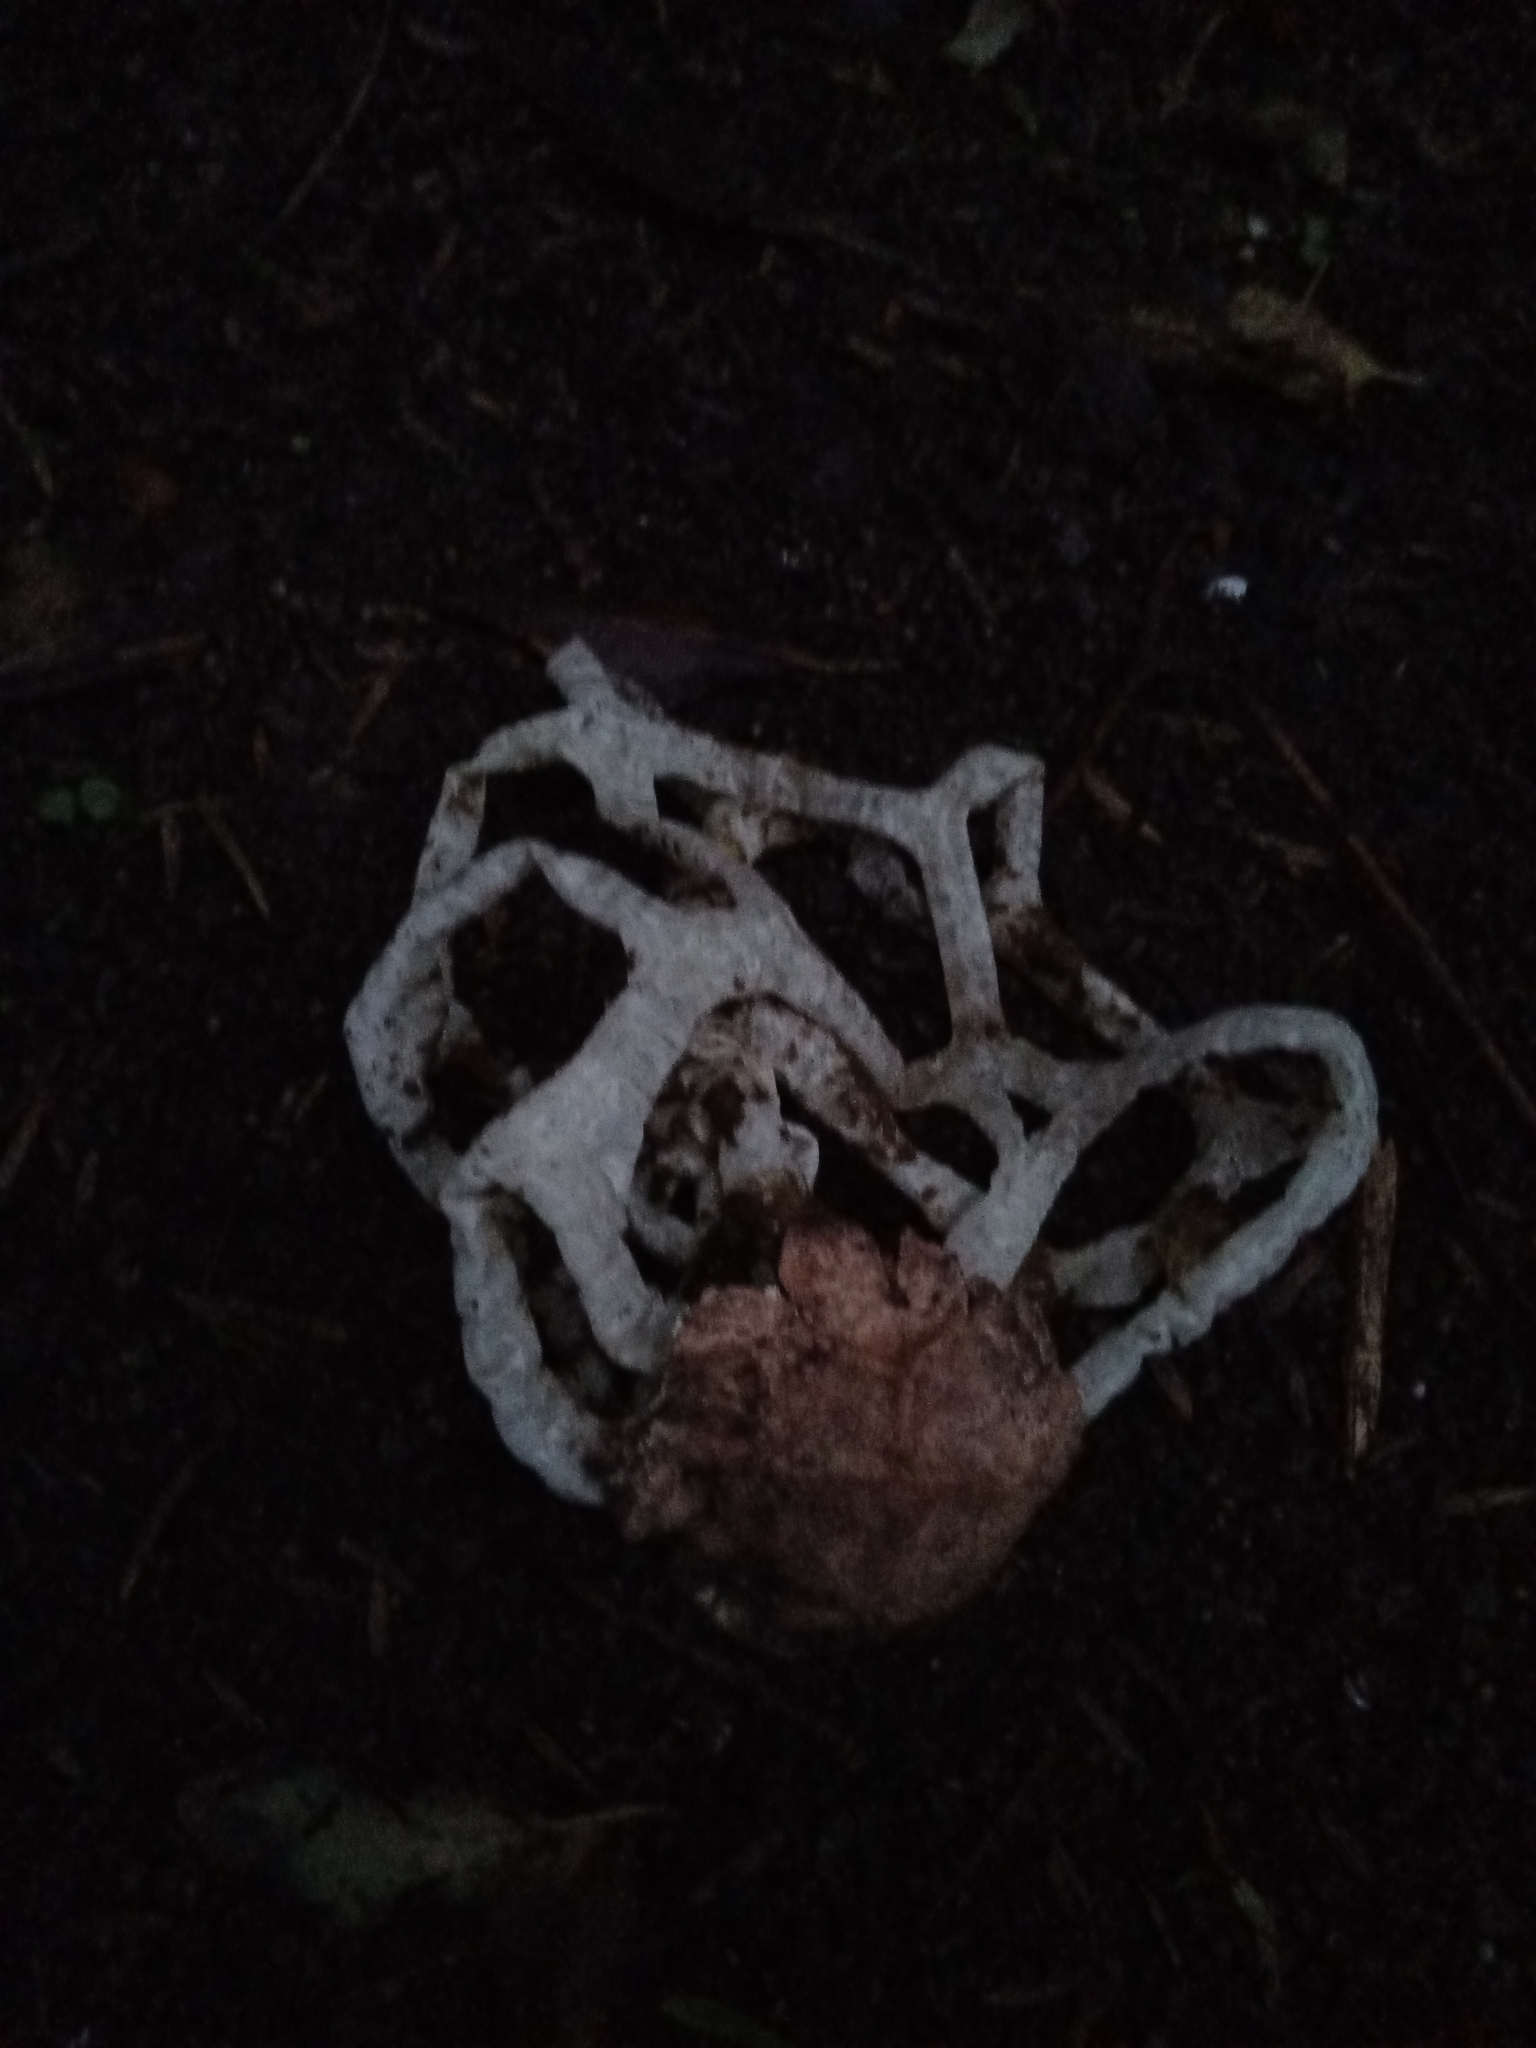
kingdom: Fungi
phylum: Basidiomycota
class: Agaricomycetes
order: Phallales
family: Phallaceae
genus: Ileodictyon
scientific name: Ileodictyon cibarium
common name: Basket fungus
